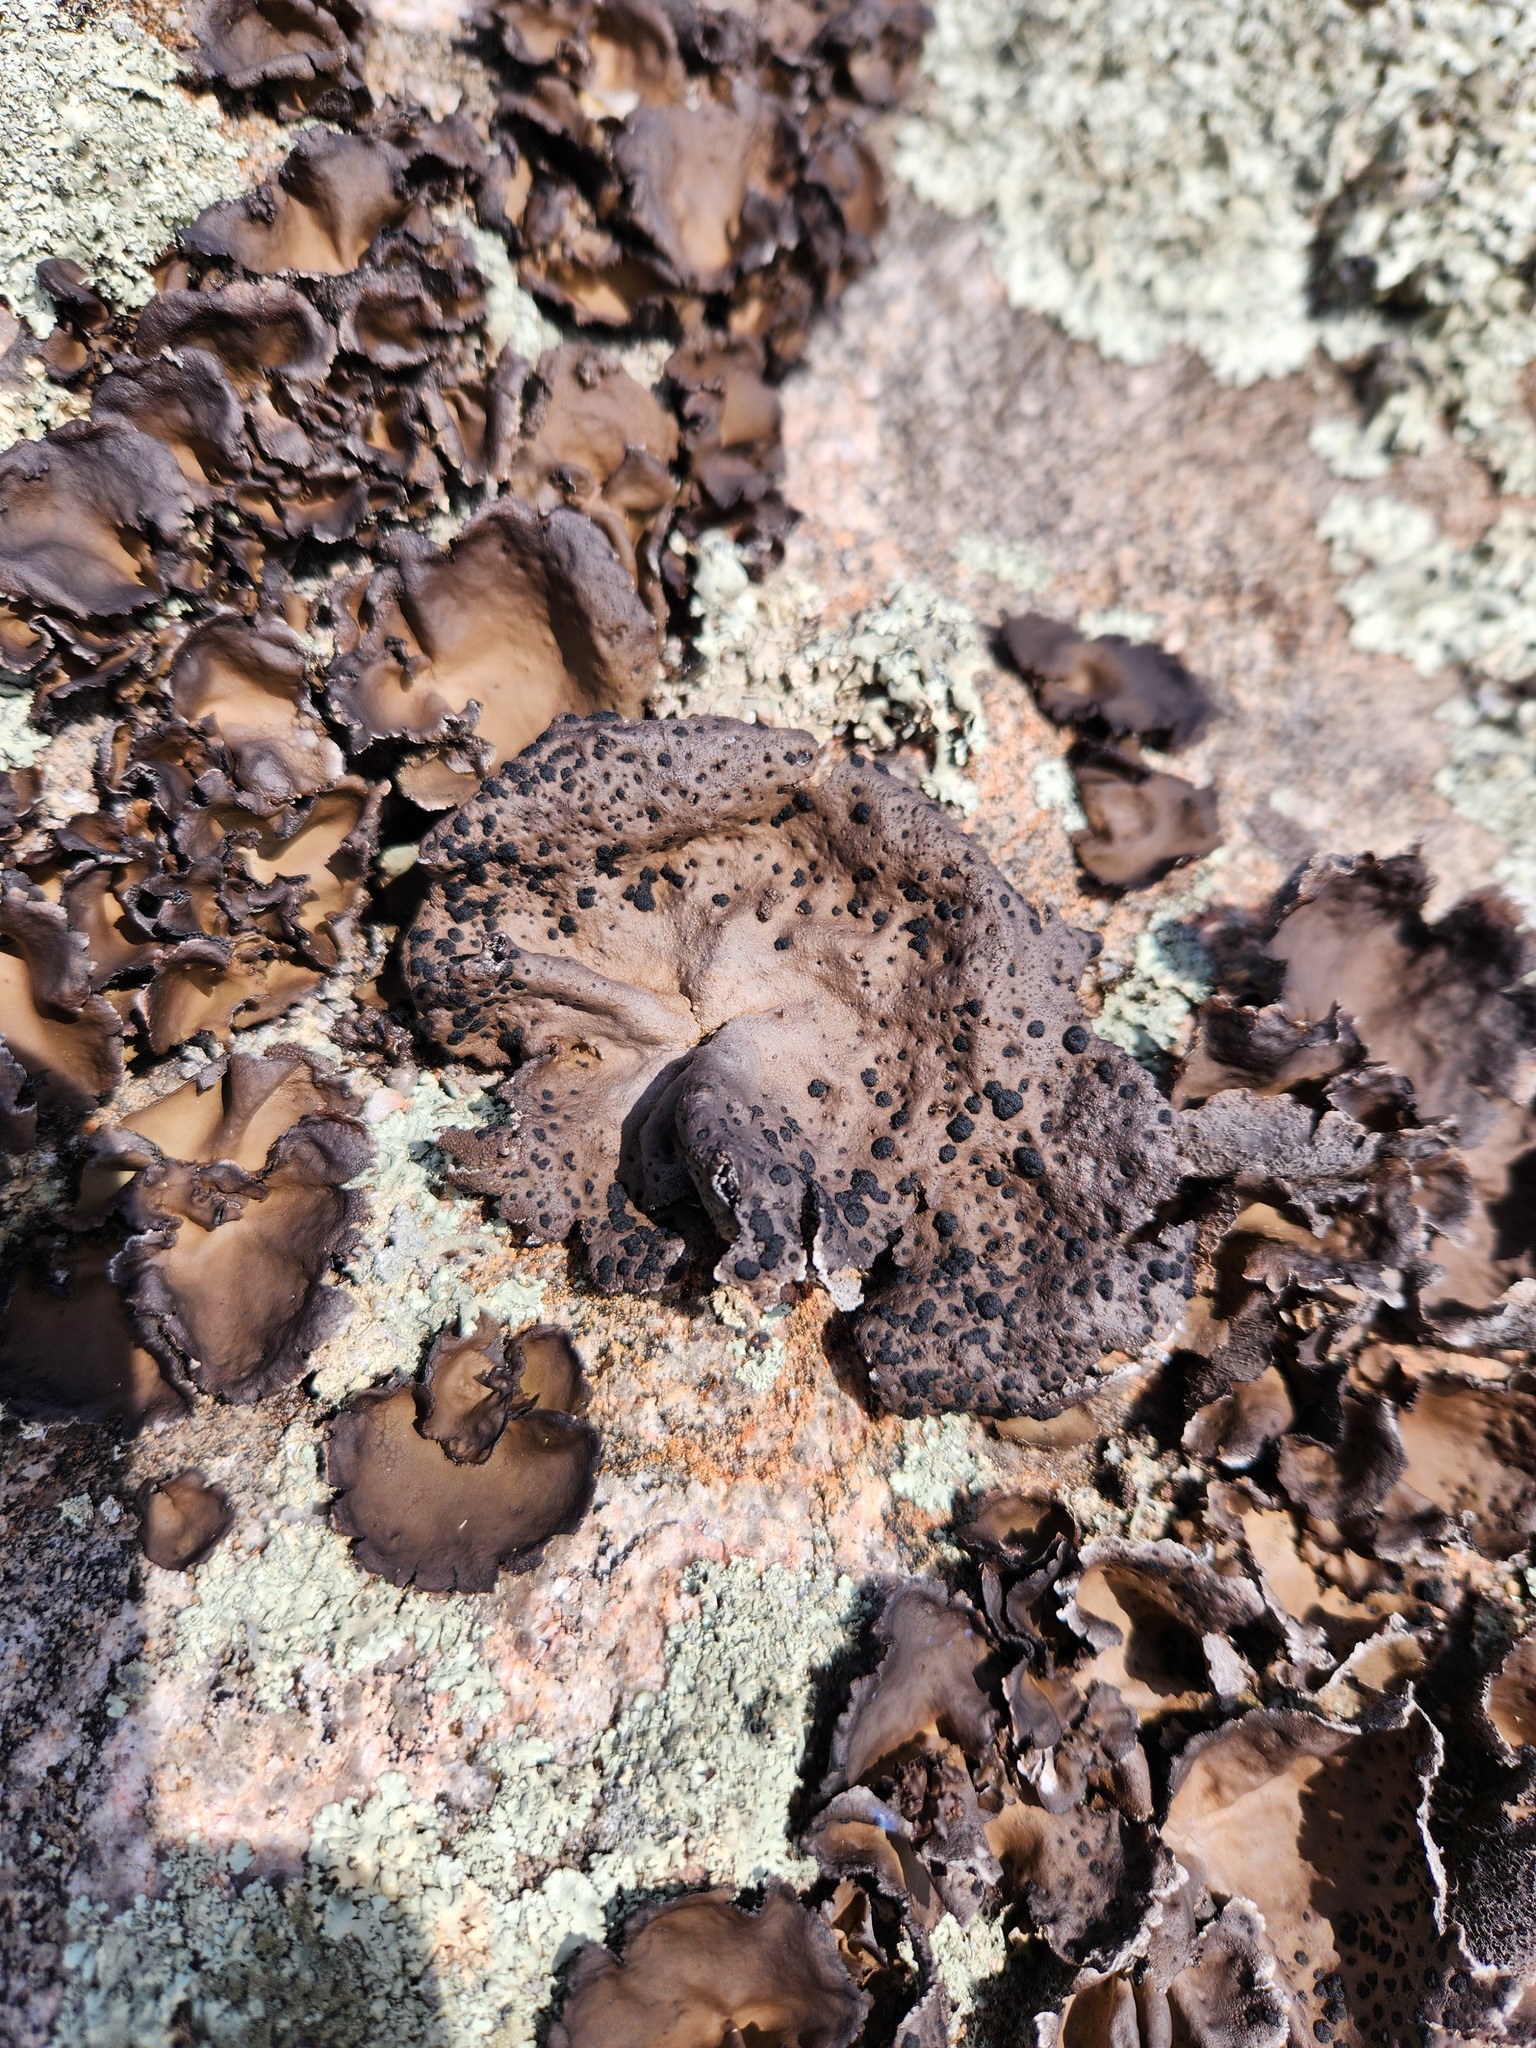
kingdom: Fungi
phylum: Ascomycota
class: Lecanoromycetes
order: Umbilicariales
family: Umbilicariaceae
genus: Umbilicaria
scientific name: Umbilicaria muhlenbergii
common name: Lesser rocktripe
